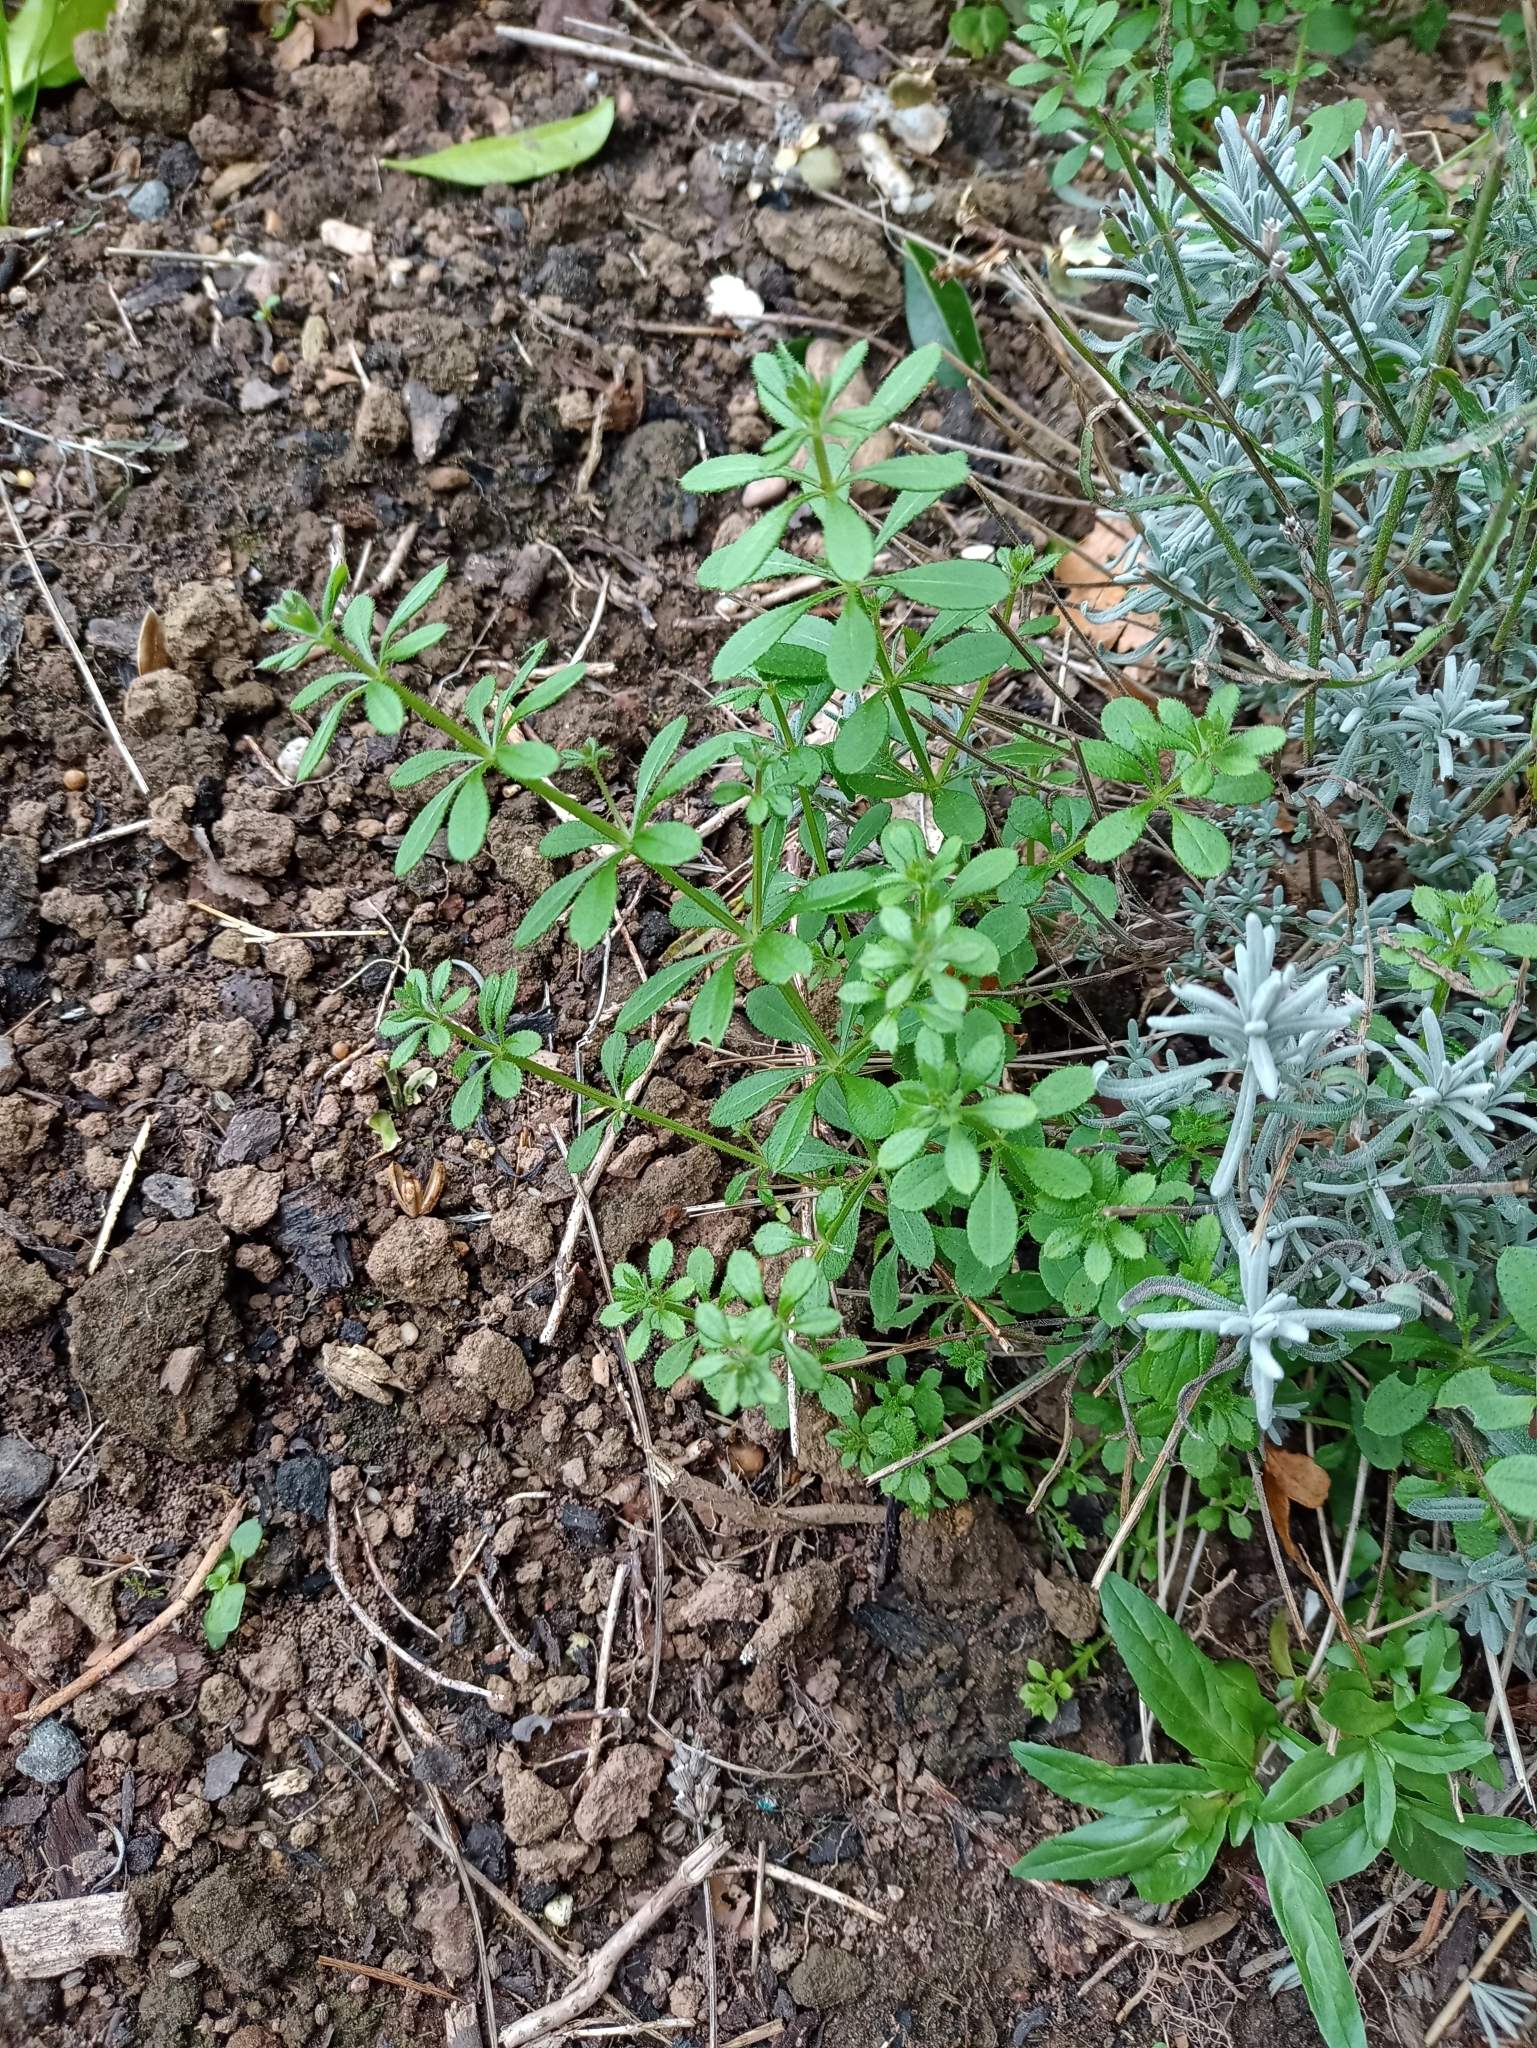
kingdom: Plantae
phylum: Tracheophyta
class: Magnoliopsida
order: Gentianales
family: Rubiaceae
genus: Galium
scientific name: Galium aparine
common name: Cleavers
